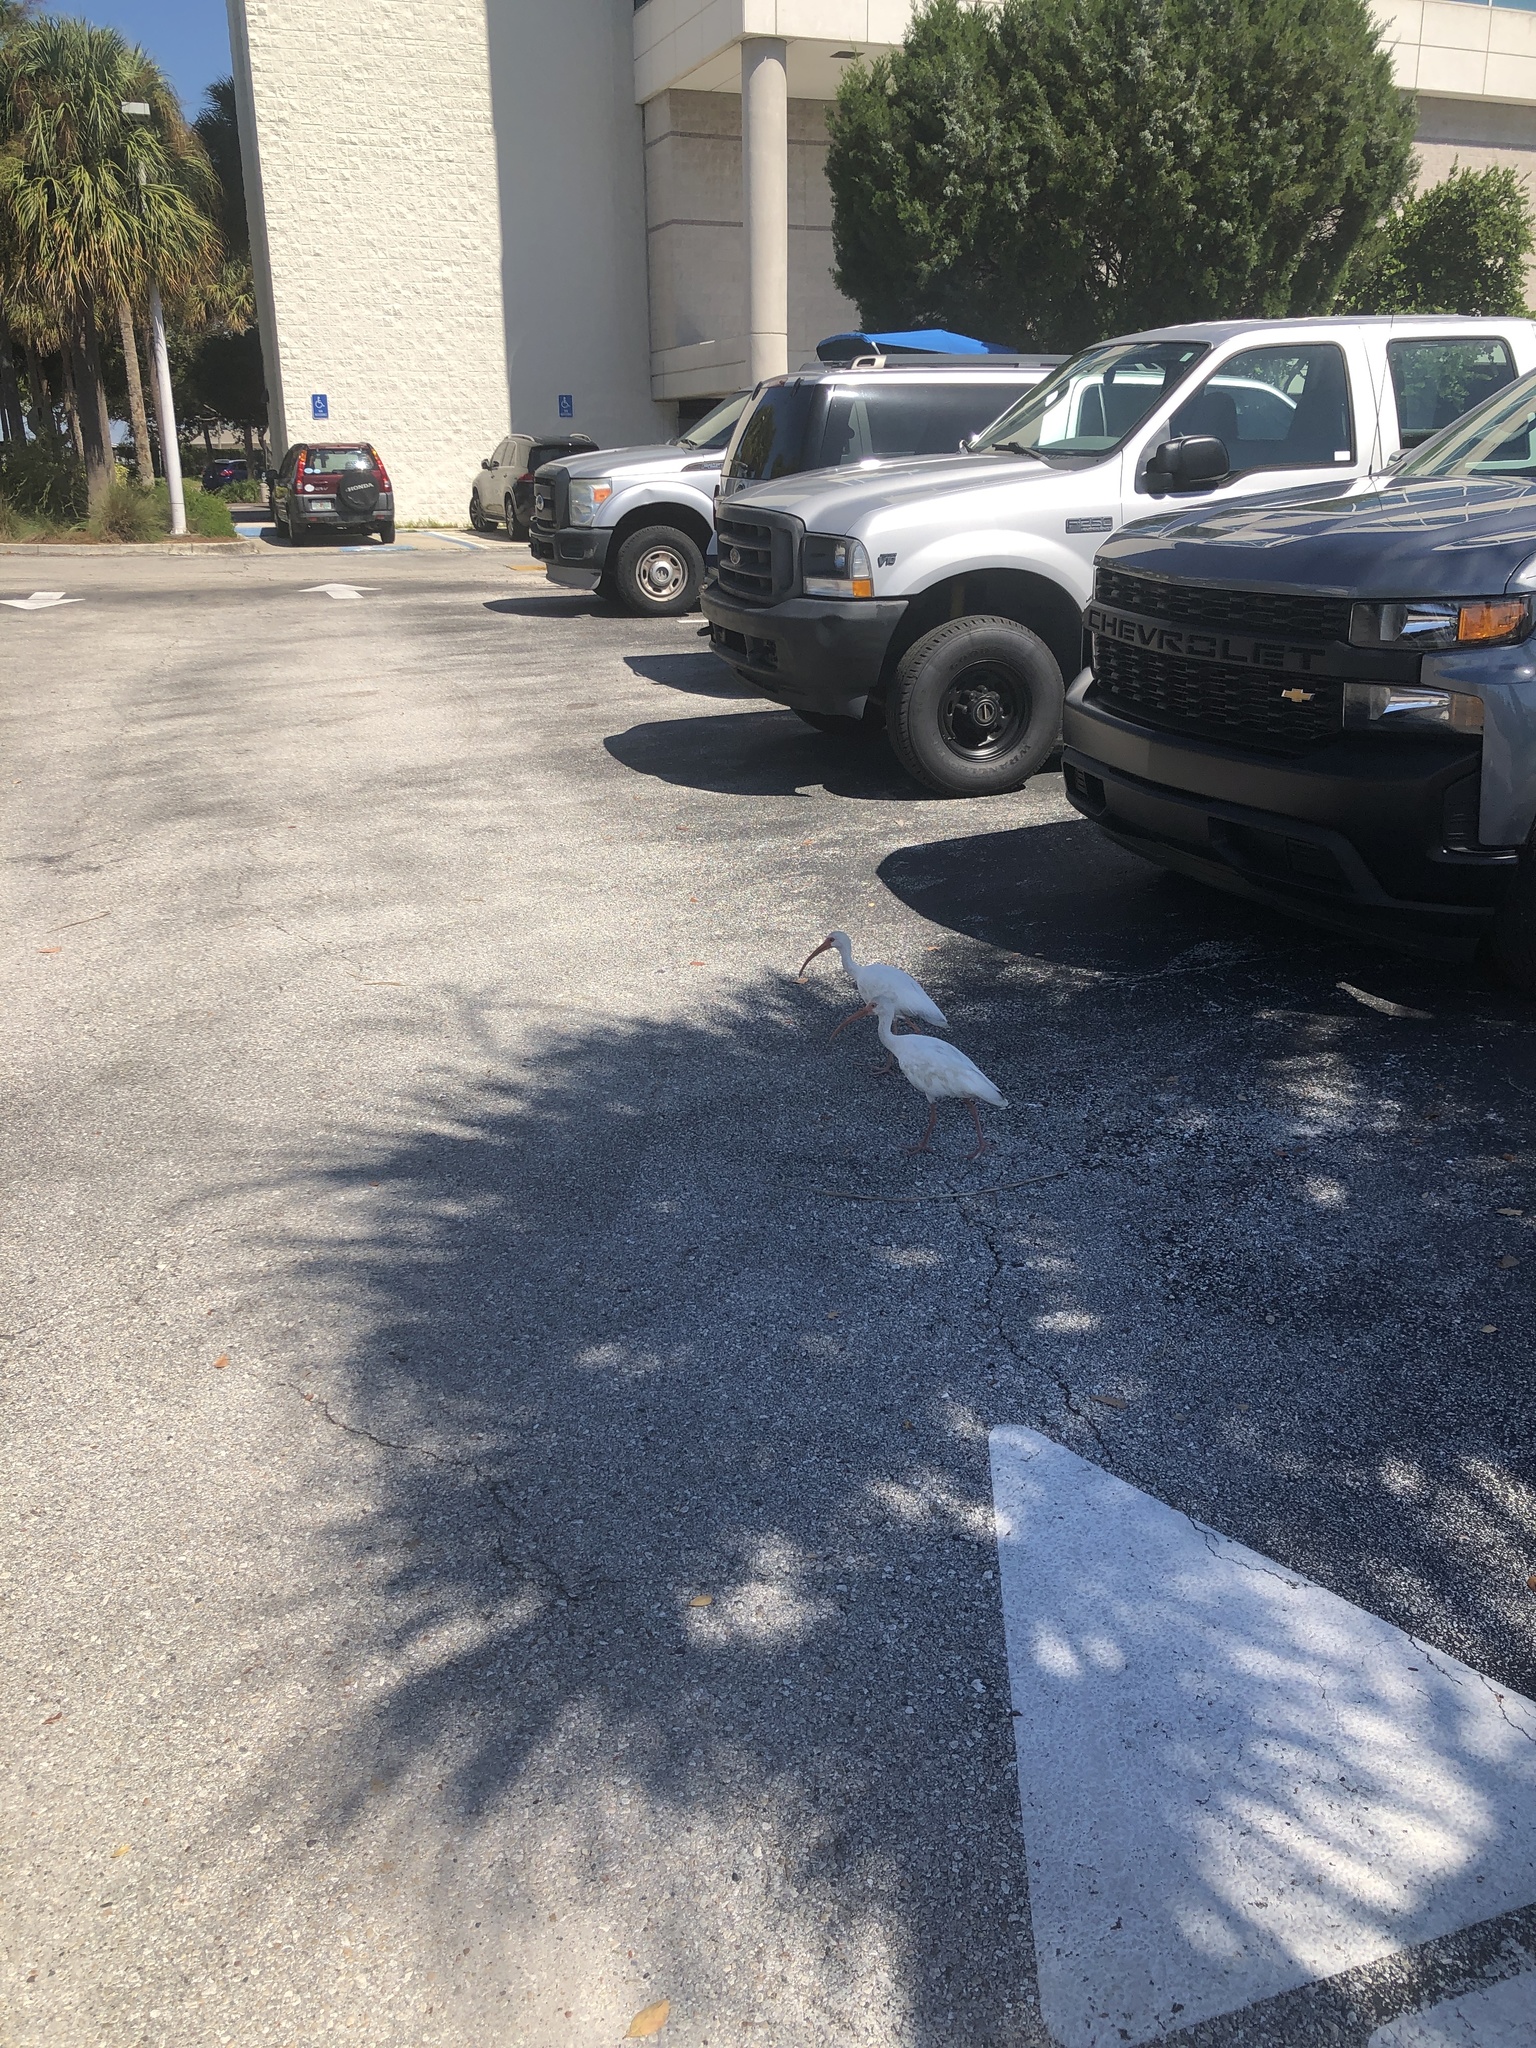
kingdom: Animalia
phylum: Chordata
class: Aves
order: Pelecaniformes
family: Threskiornithidae
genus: Eudocimus
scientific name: Eudocimus albus
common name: White ibis
